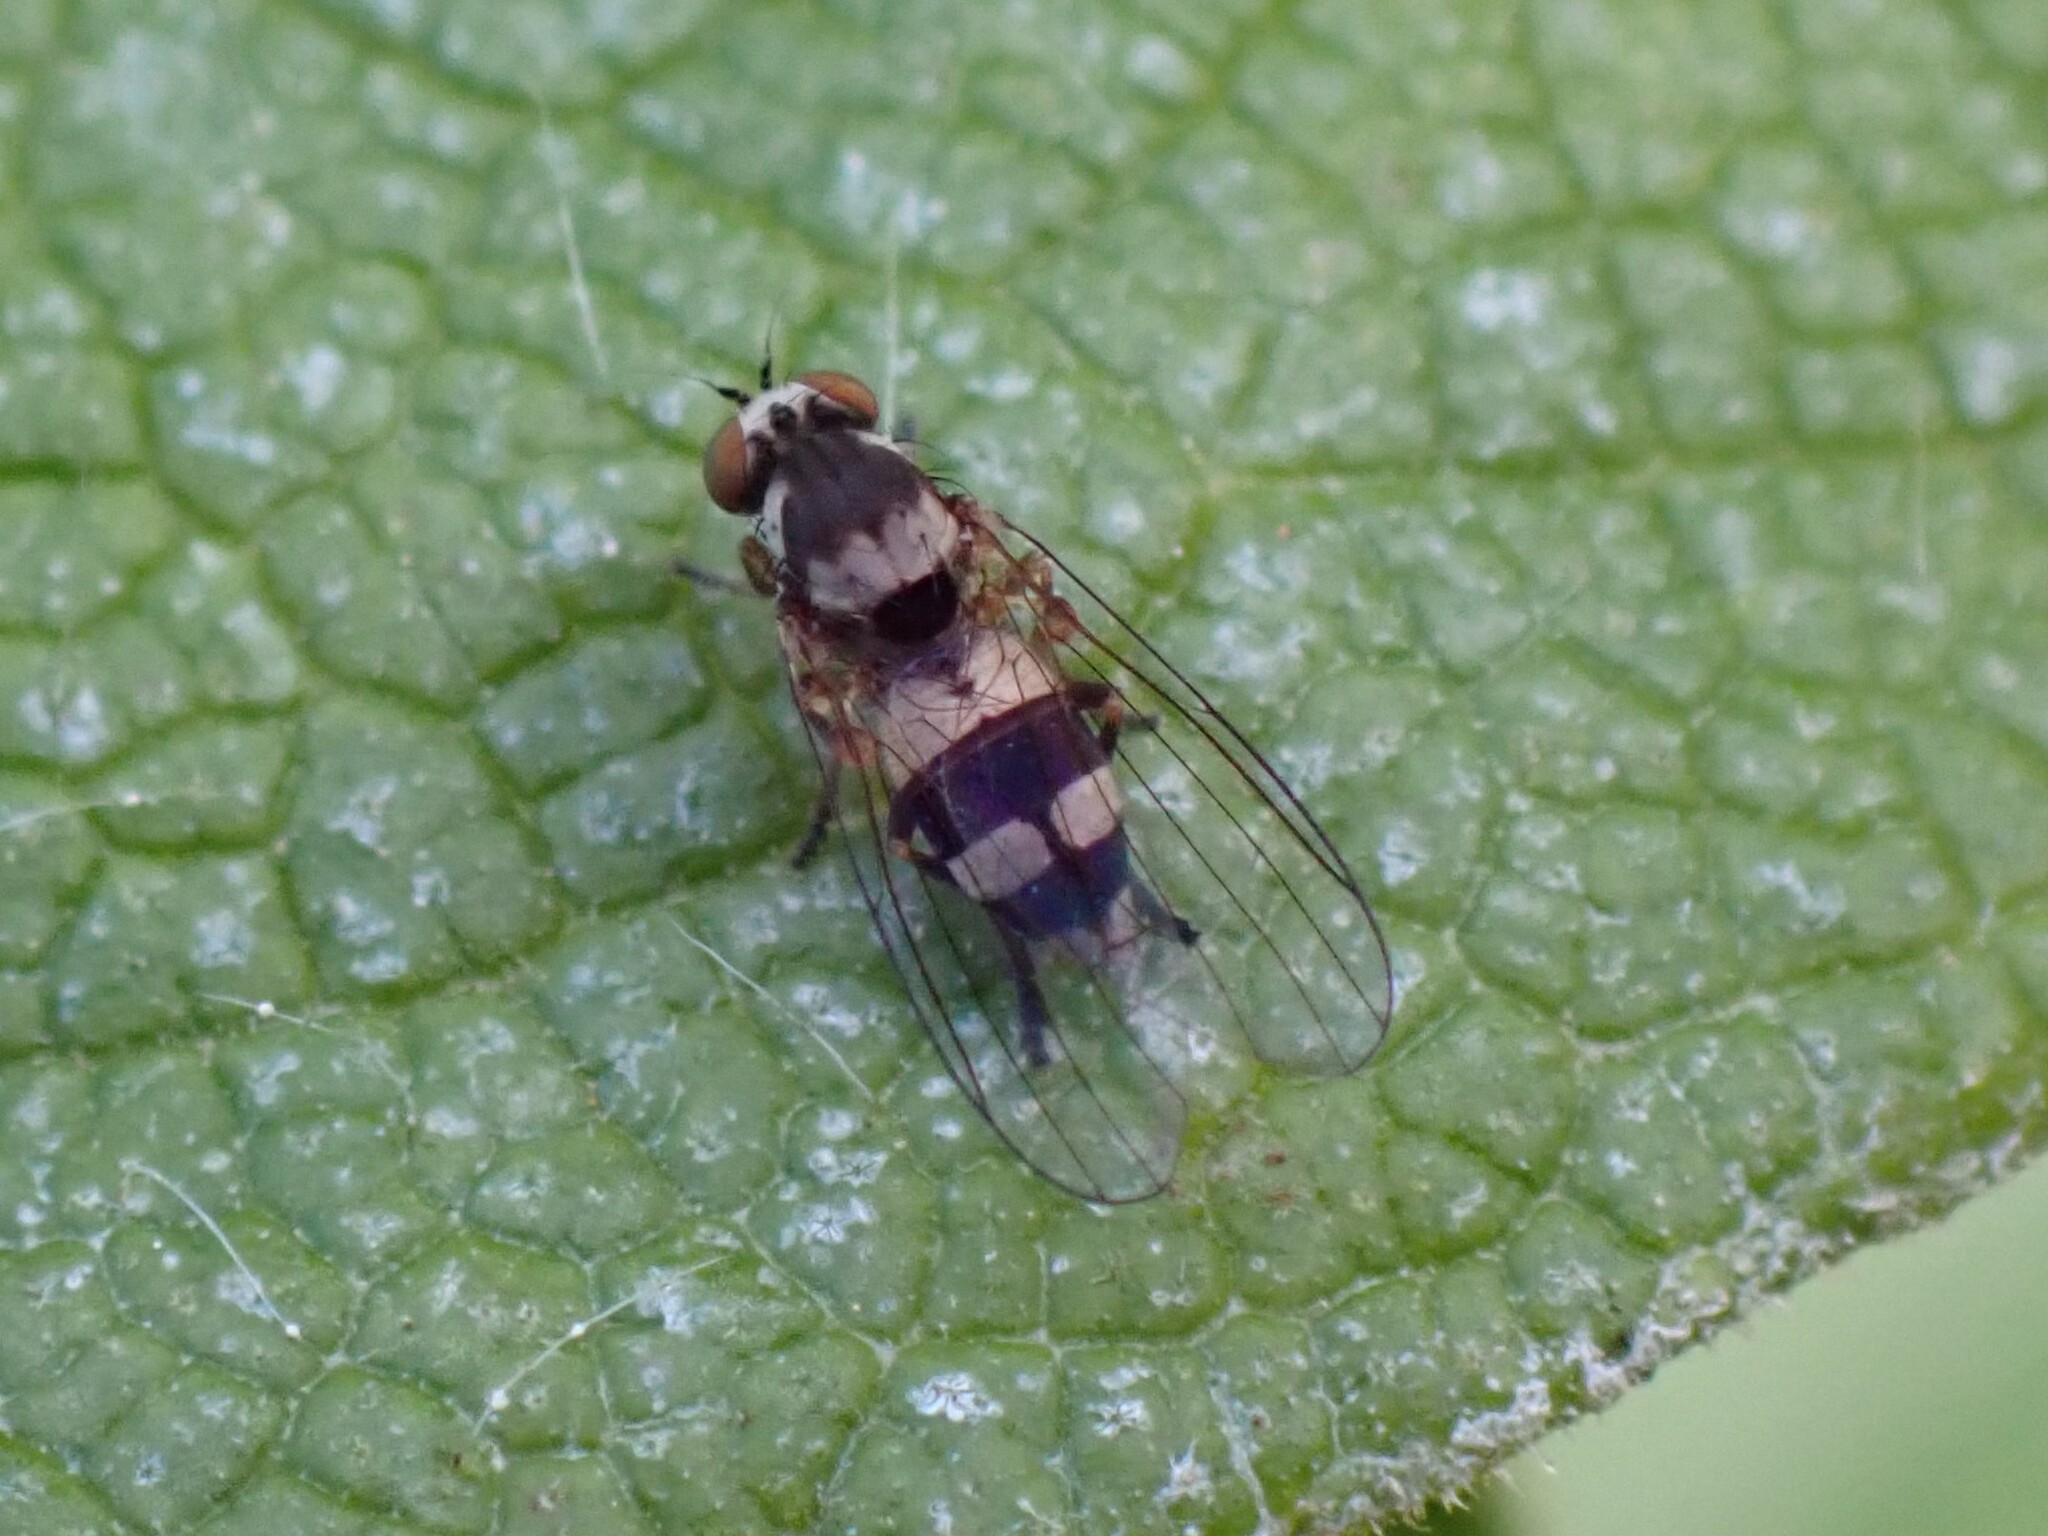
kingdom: Animalia
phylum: Arthropoda
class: Insecta
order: Diptera
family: Platypezidae
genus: Callomyia
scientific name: Callomyia dives
